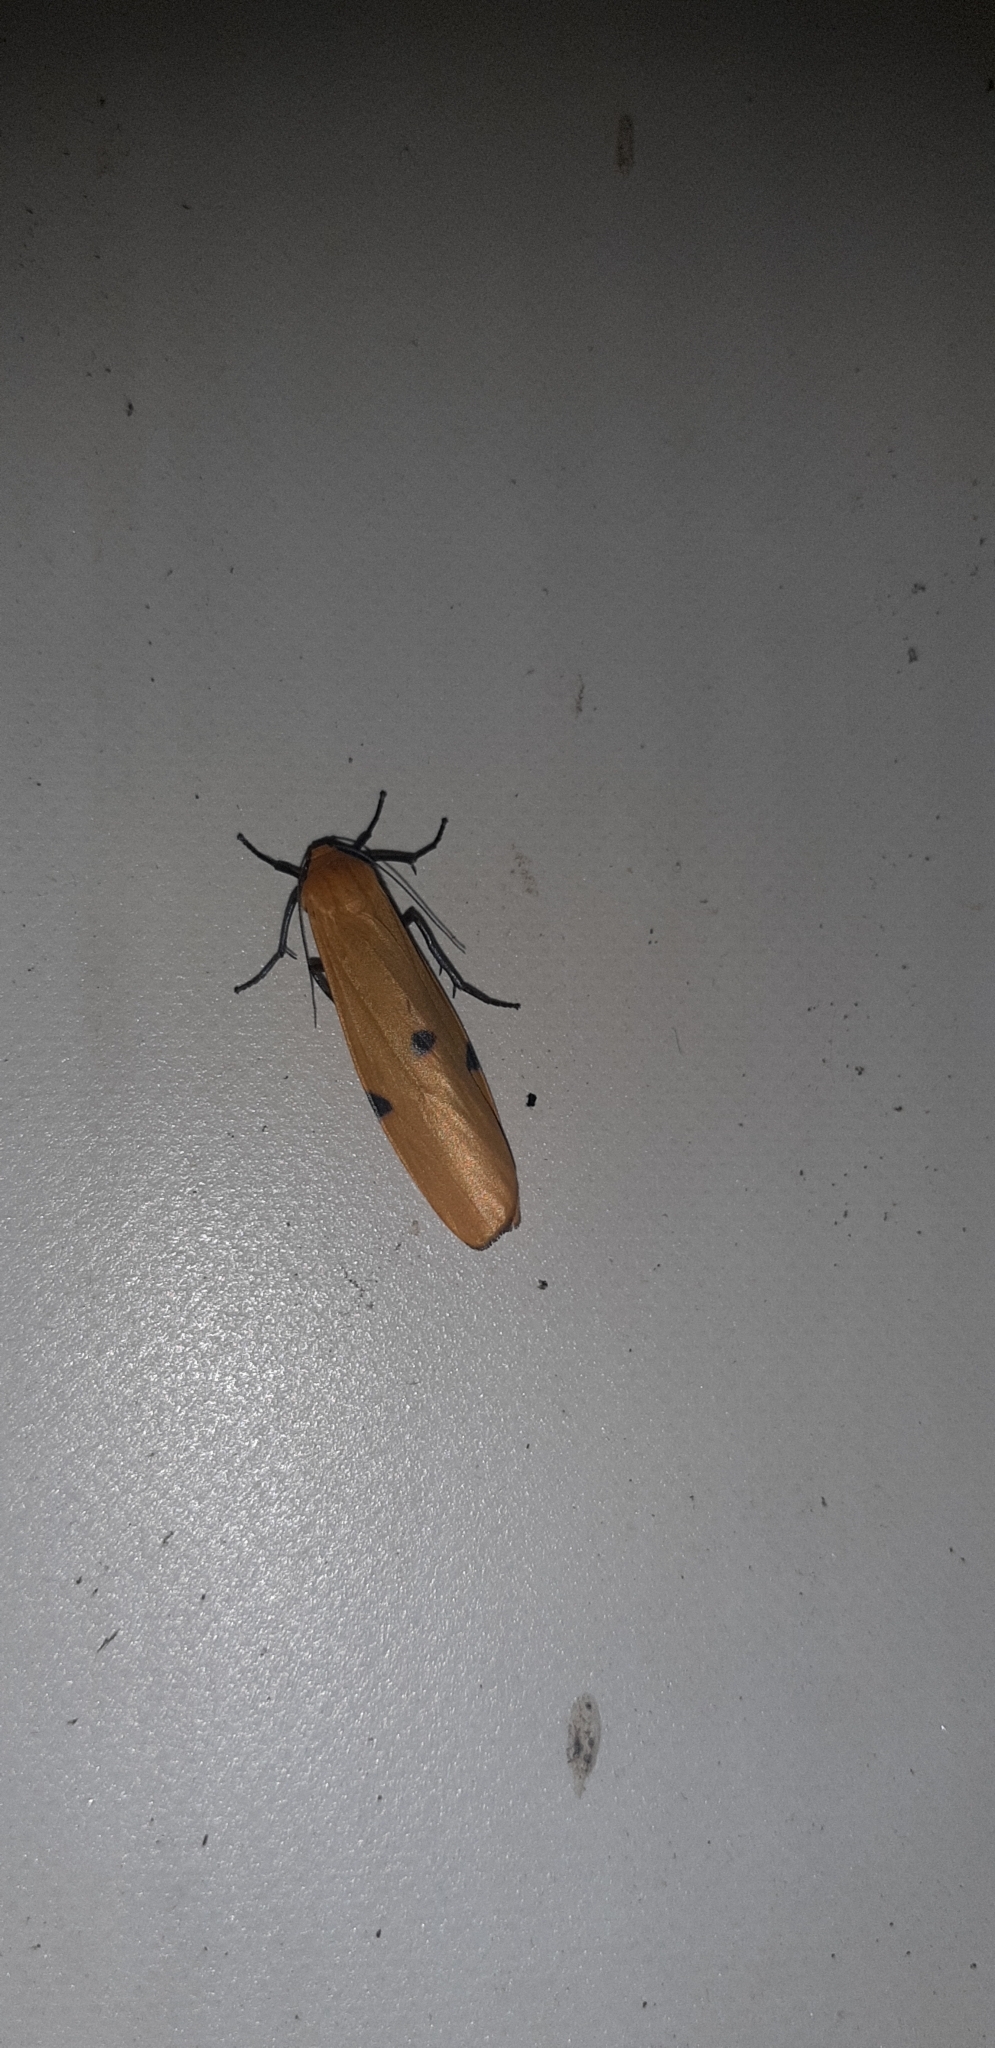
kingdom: Animalia
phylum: Arthropoda
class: Insecta
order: Lepidoptera
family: Erebidae
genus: Lithosia
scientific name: Lithosia quadra
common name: Four-spotted footman
